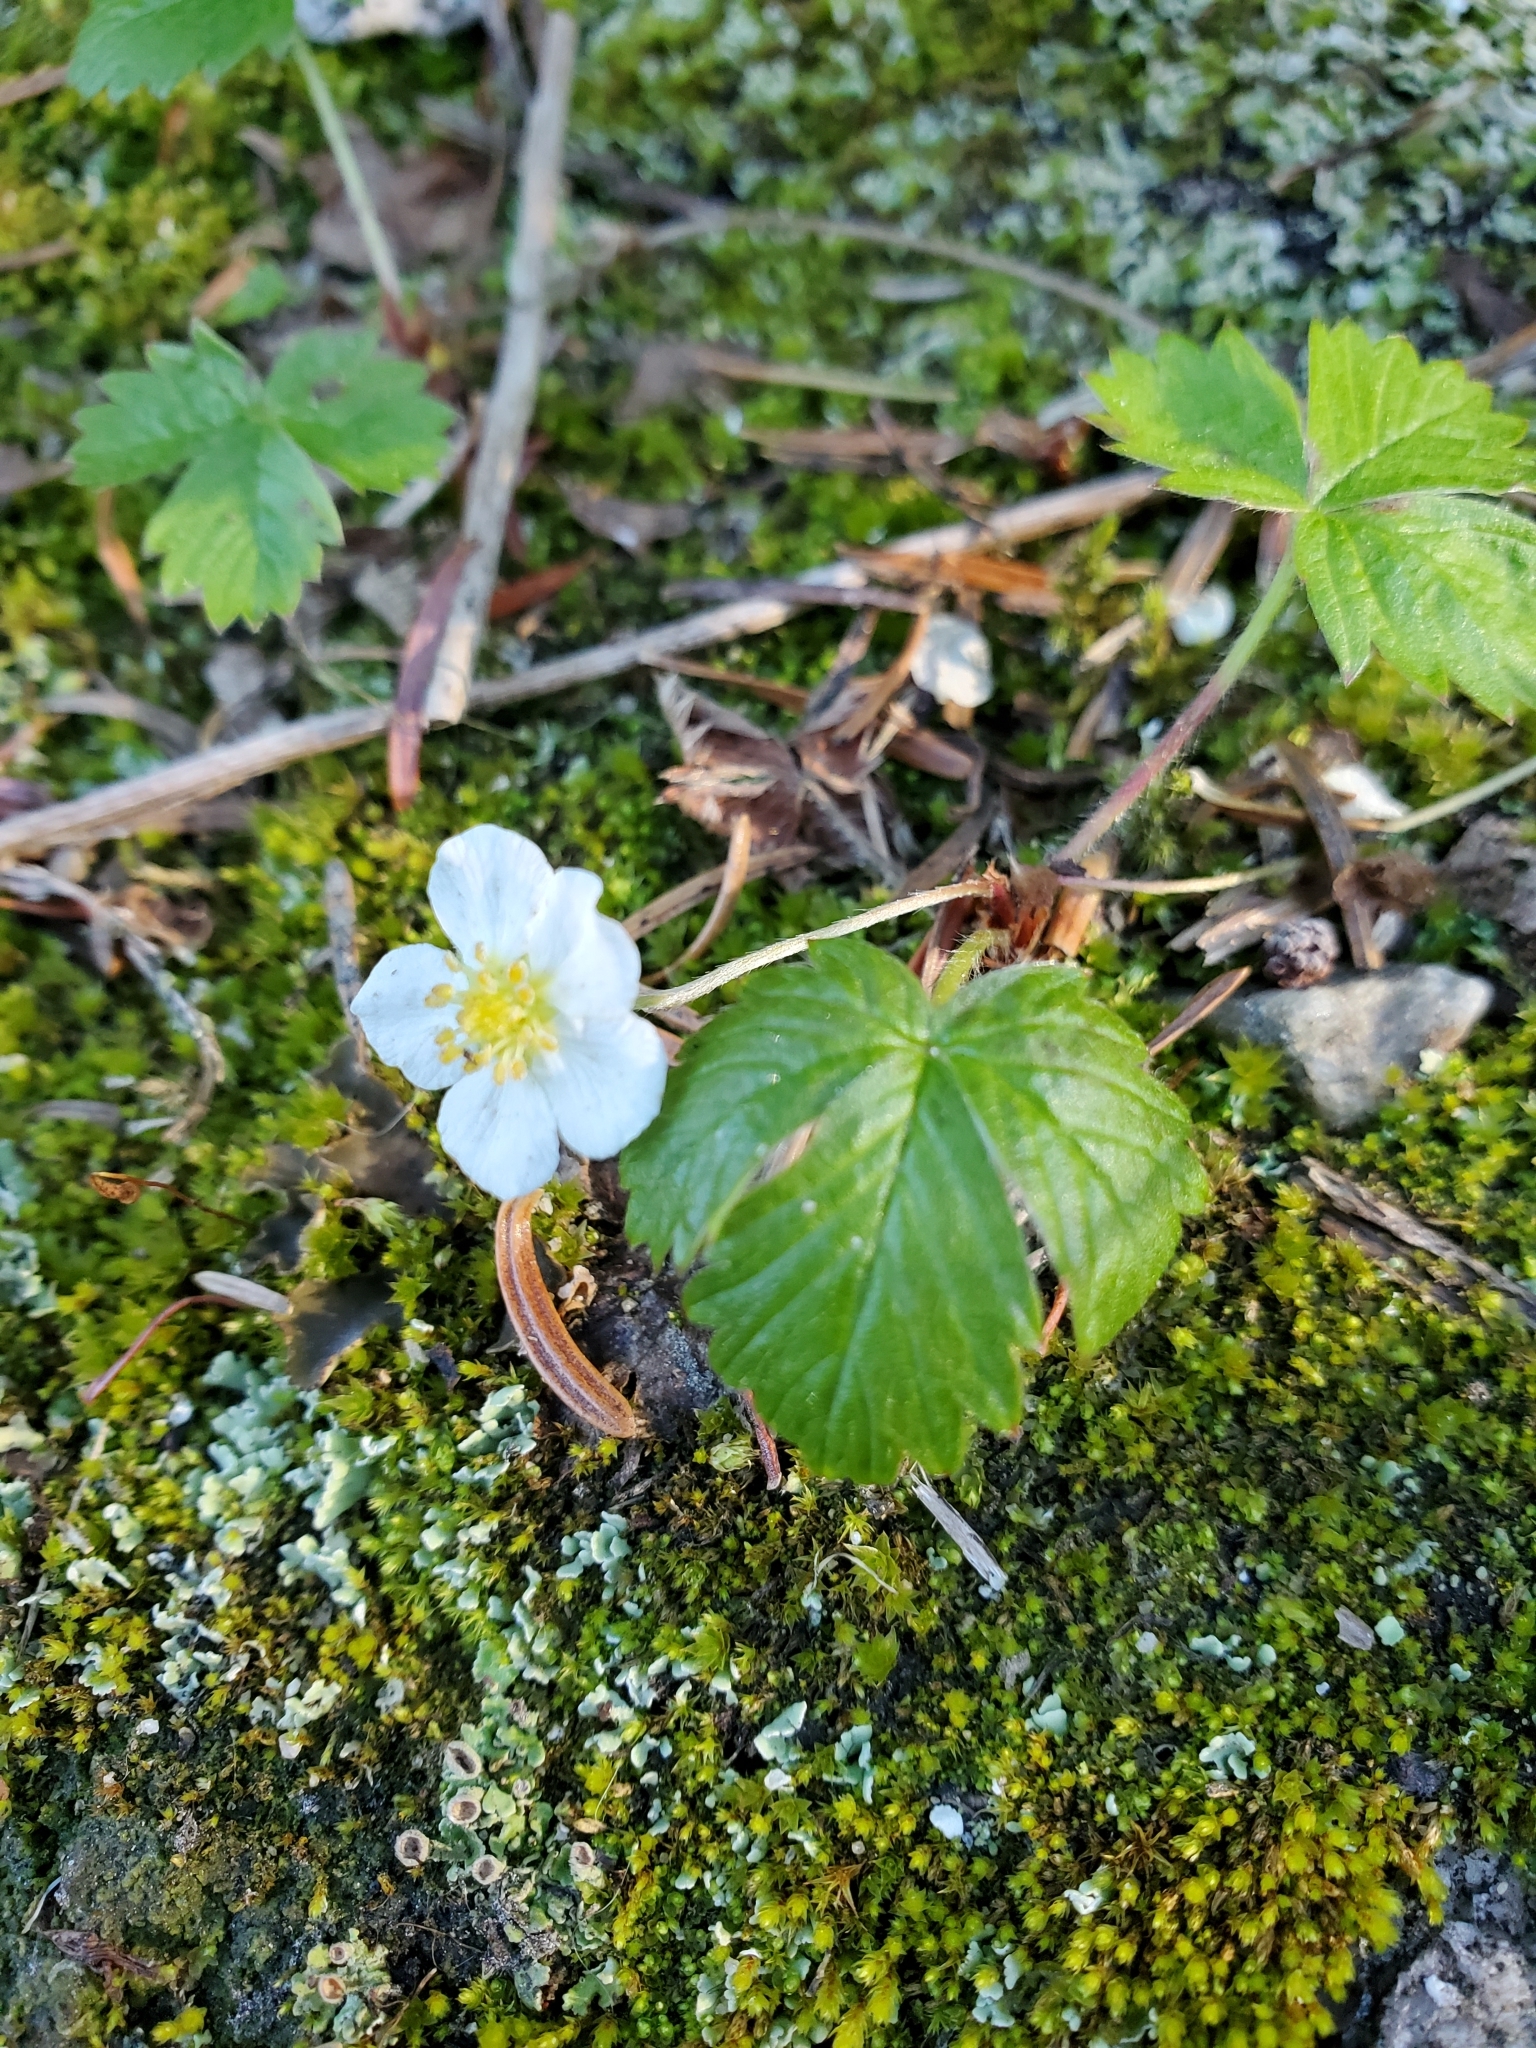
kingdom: Plantae
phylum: Tracheophyta
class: Magnoliopsida
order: Rosales
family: Rosaceae
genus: Fragaria
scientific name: Fragaria vesca
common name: Wild strawberry
